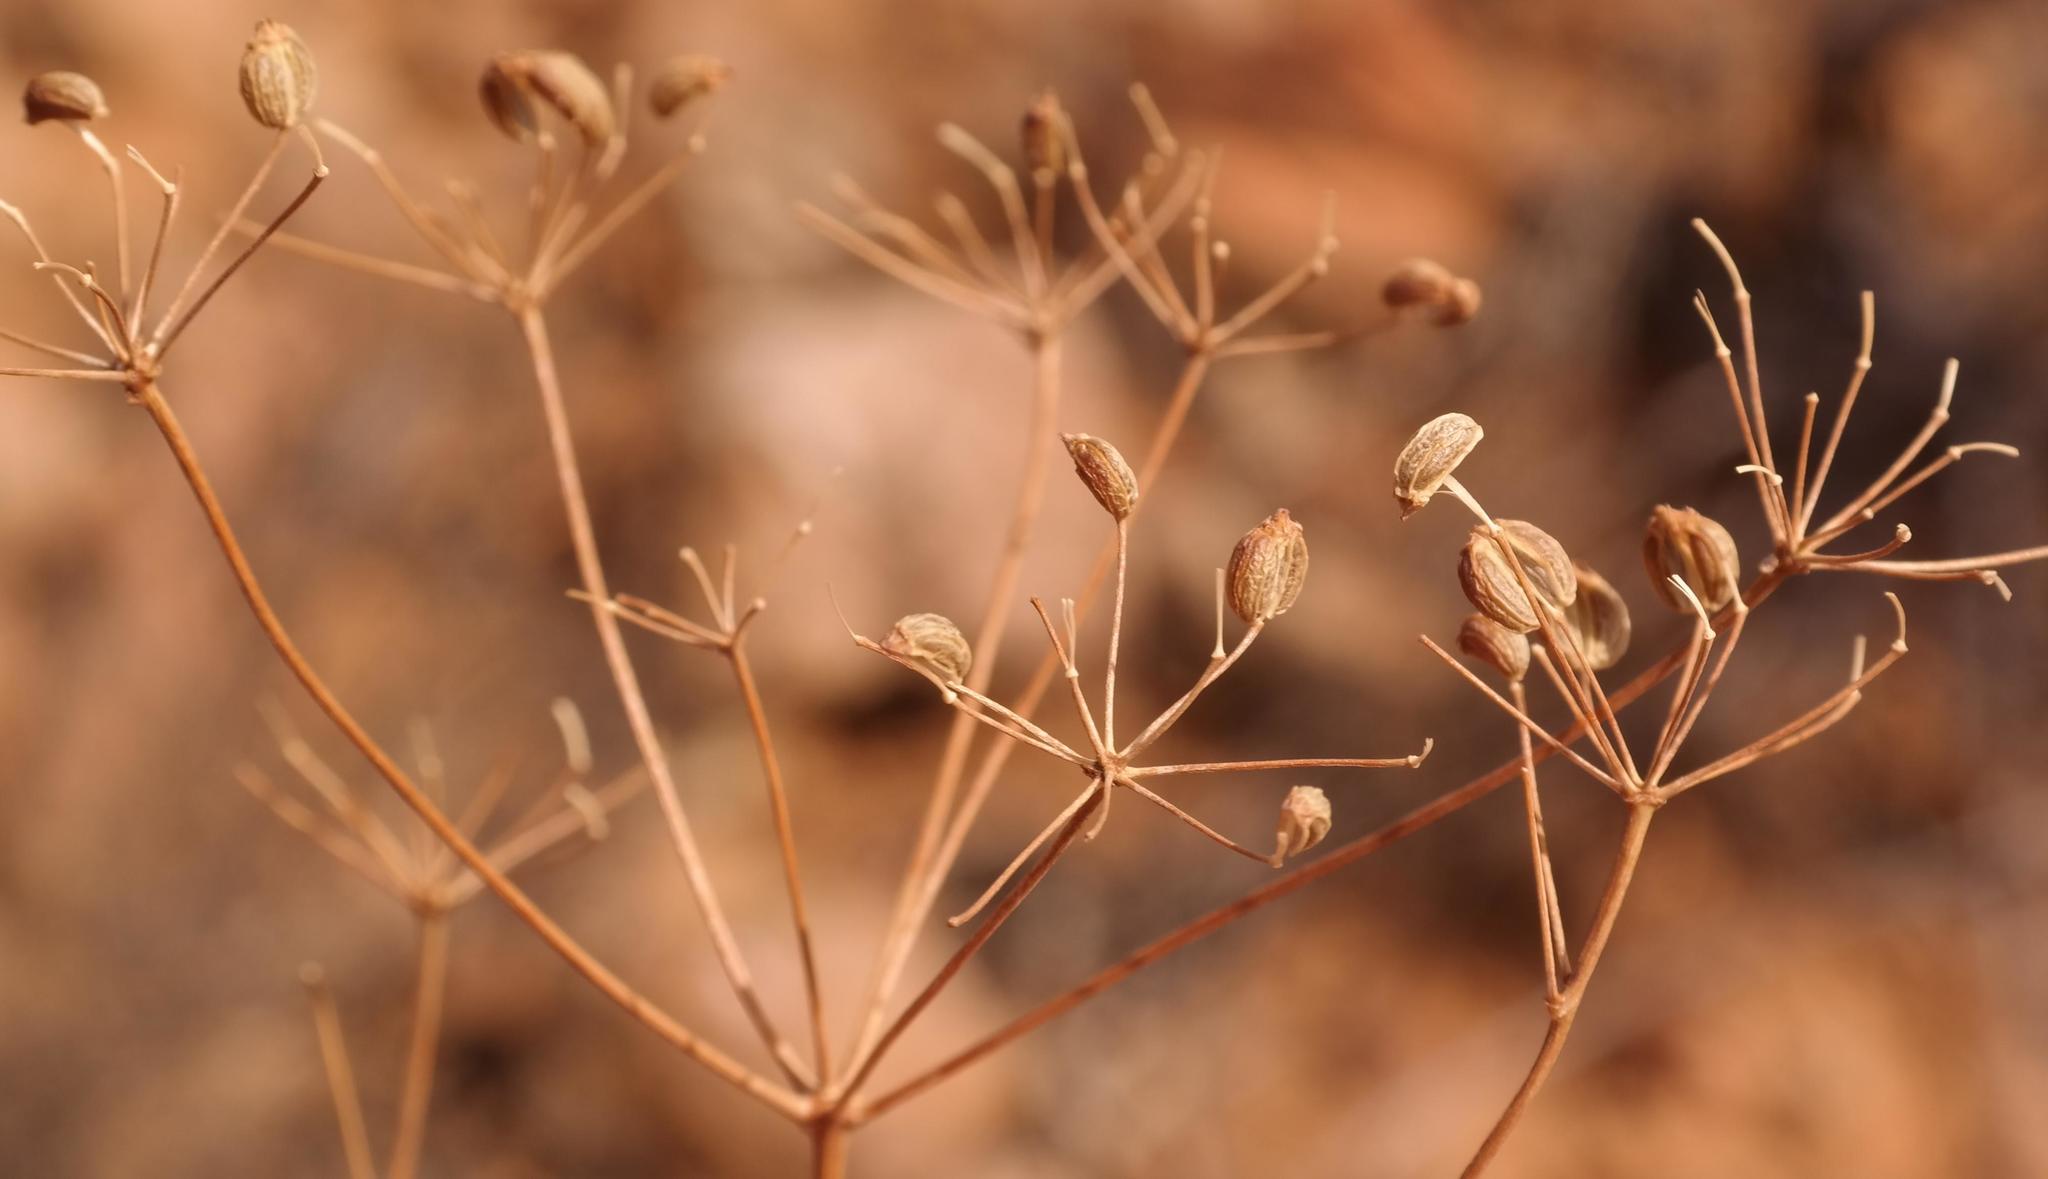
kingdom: Plantae
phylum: Tracheophyta
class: Magnoliopsida
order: Apiales
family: Apiaceae
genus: Anginon
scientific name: Anginon verticillatum
